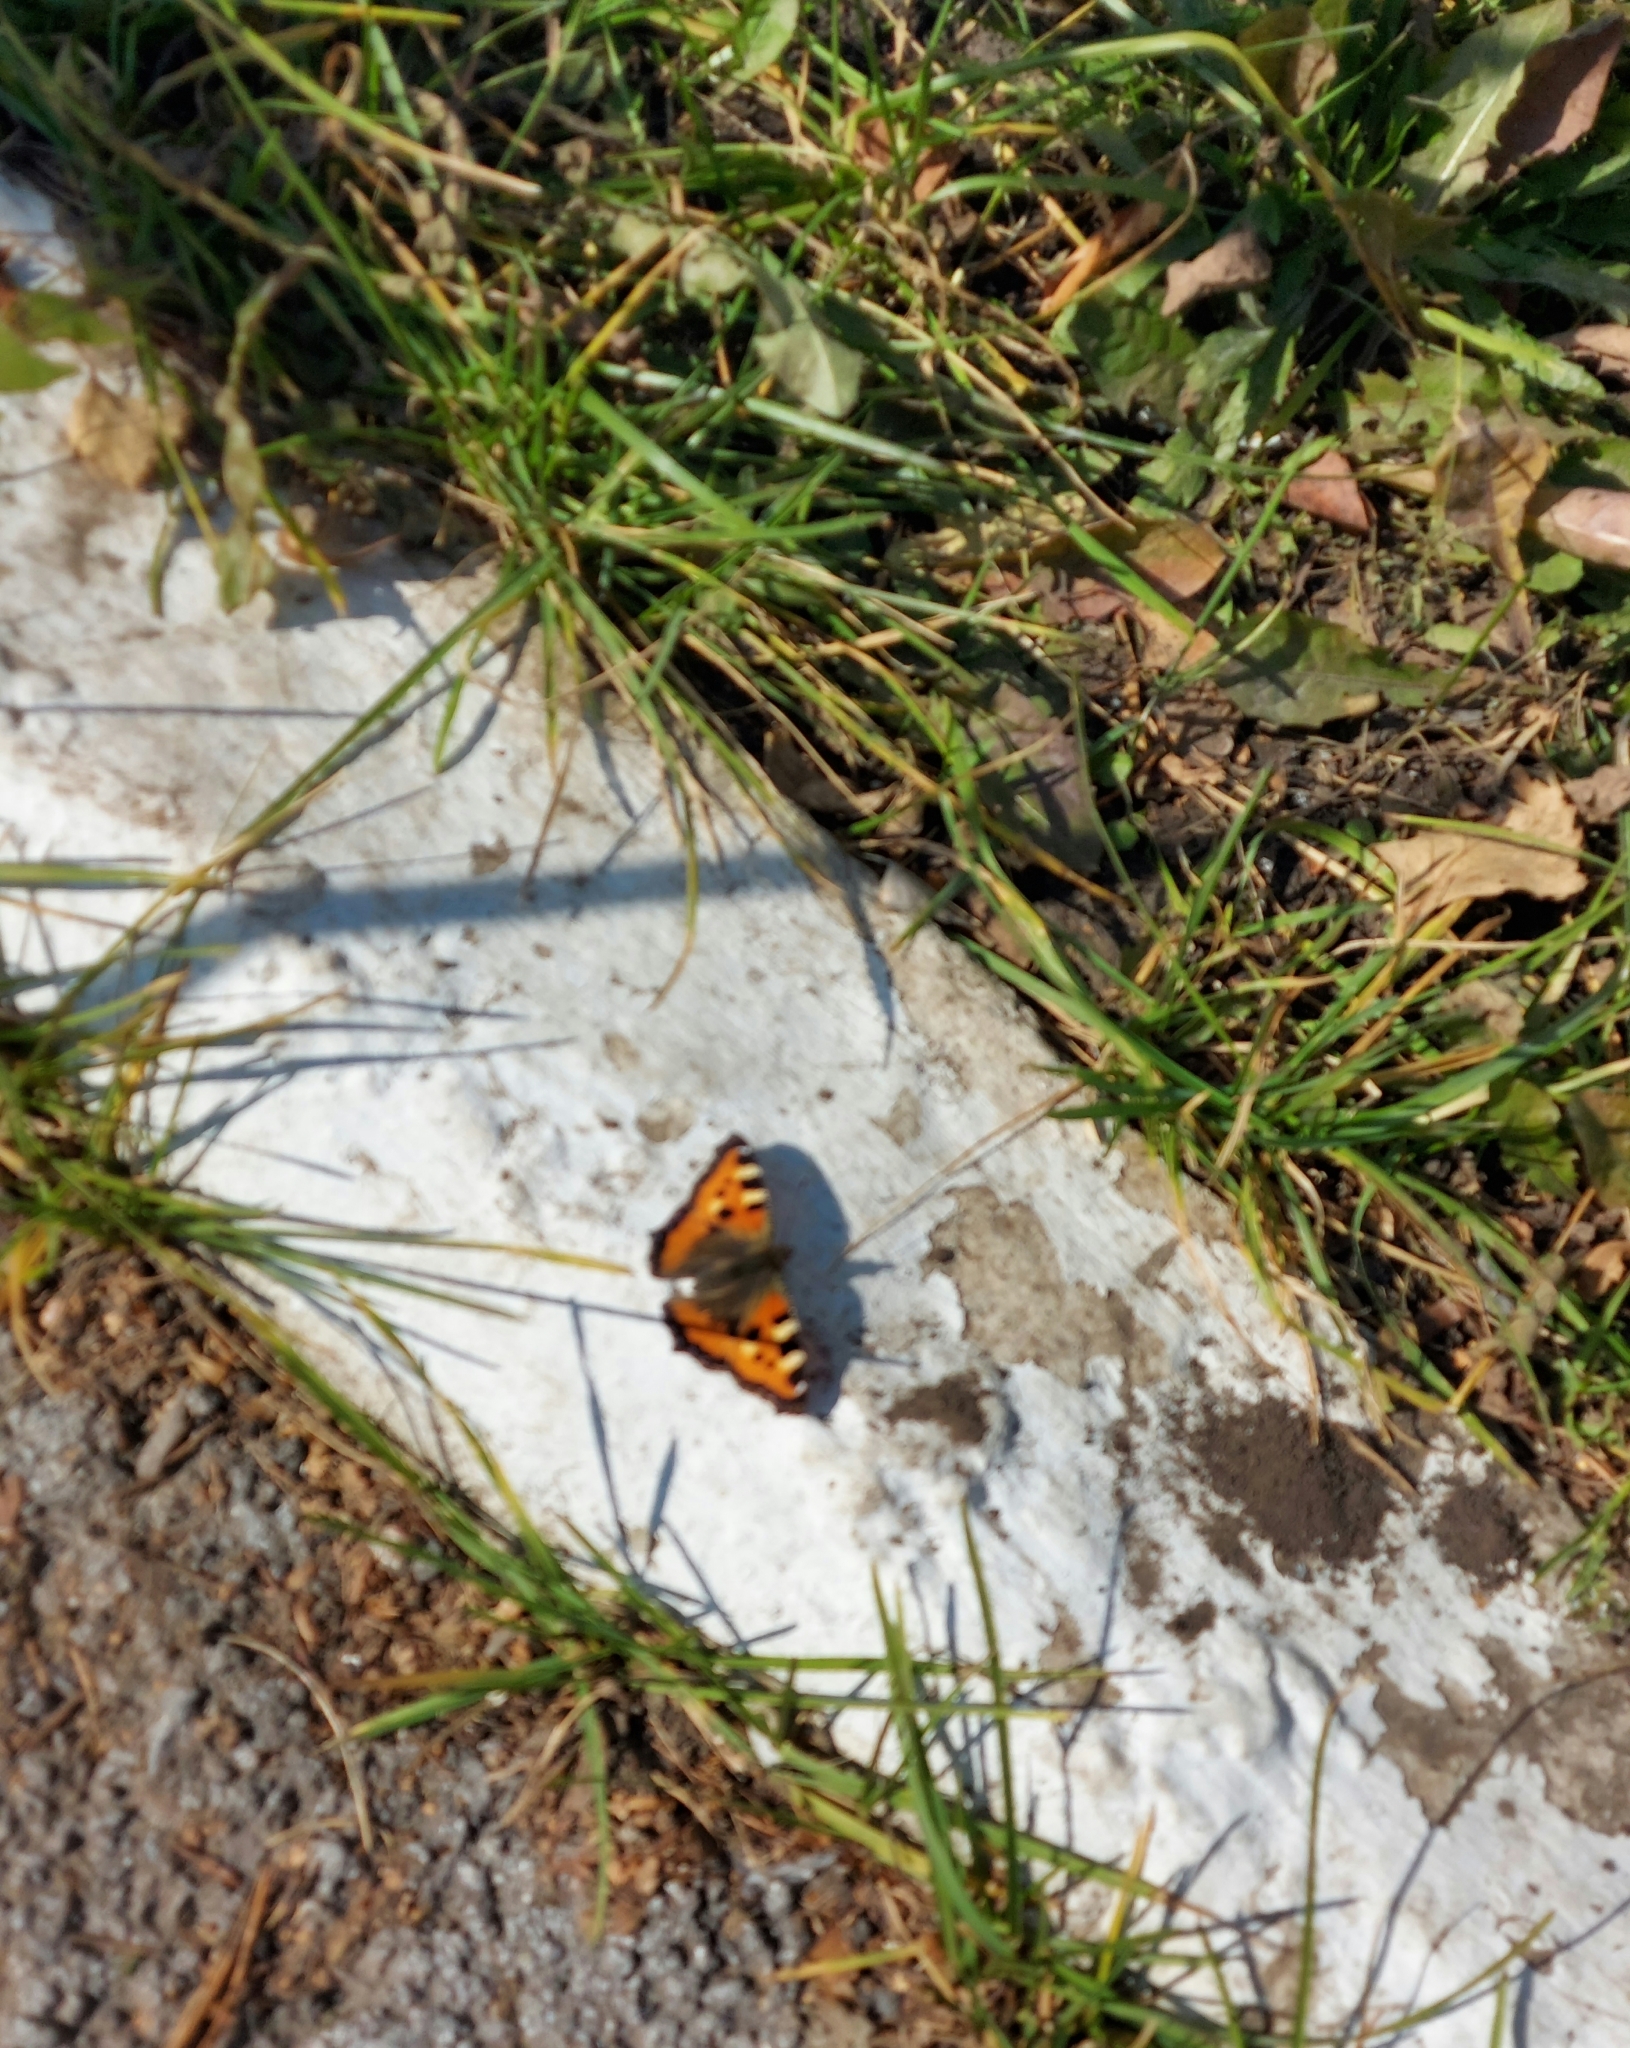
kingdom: Animalia
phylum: Arthropoda
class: Insecta
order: Lepidoptera
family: Nymphalidae
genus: Aglais
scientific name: Aglais urticae
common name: Small tortoiseshell
